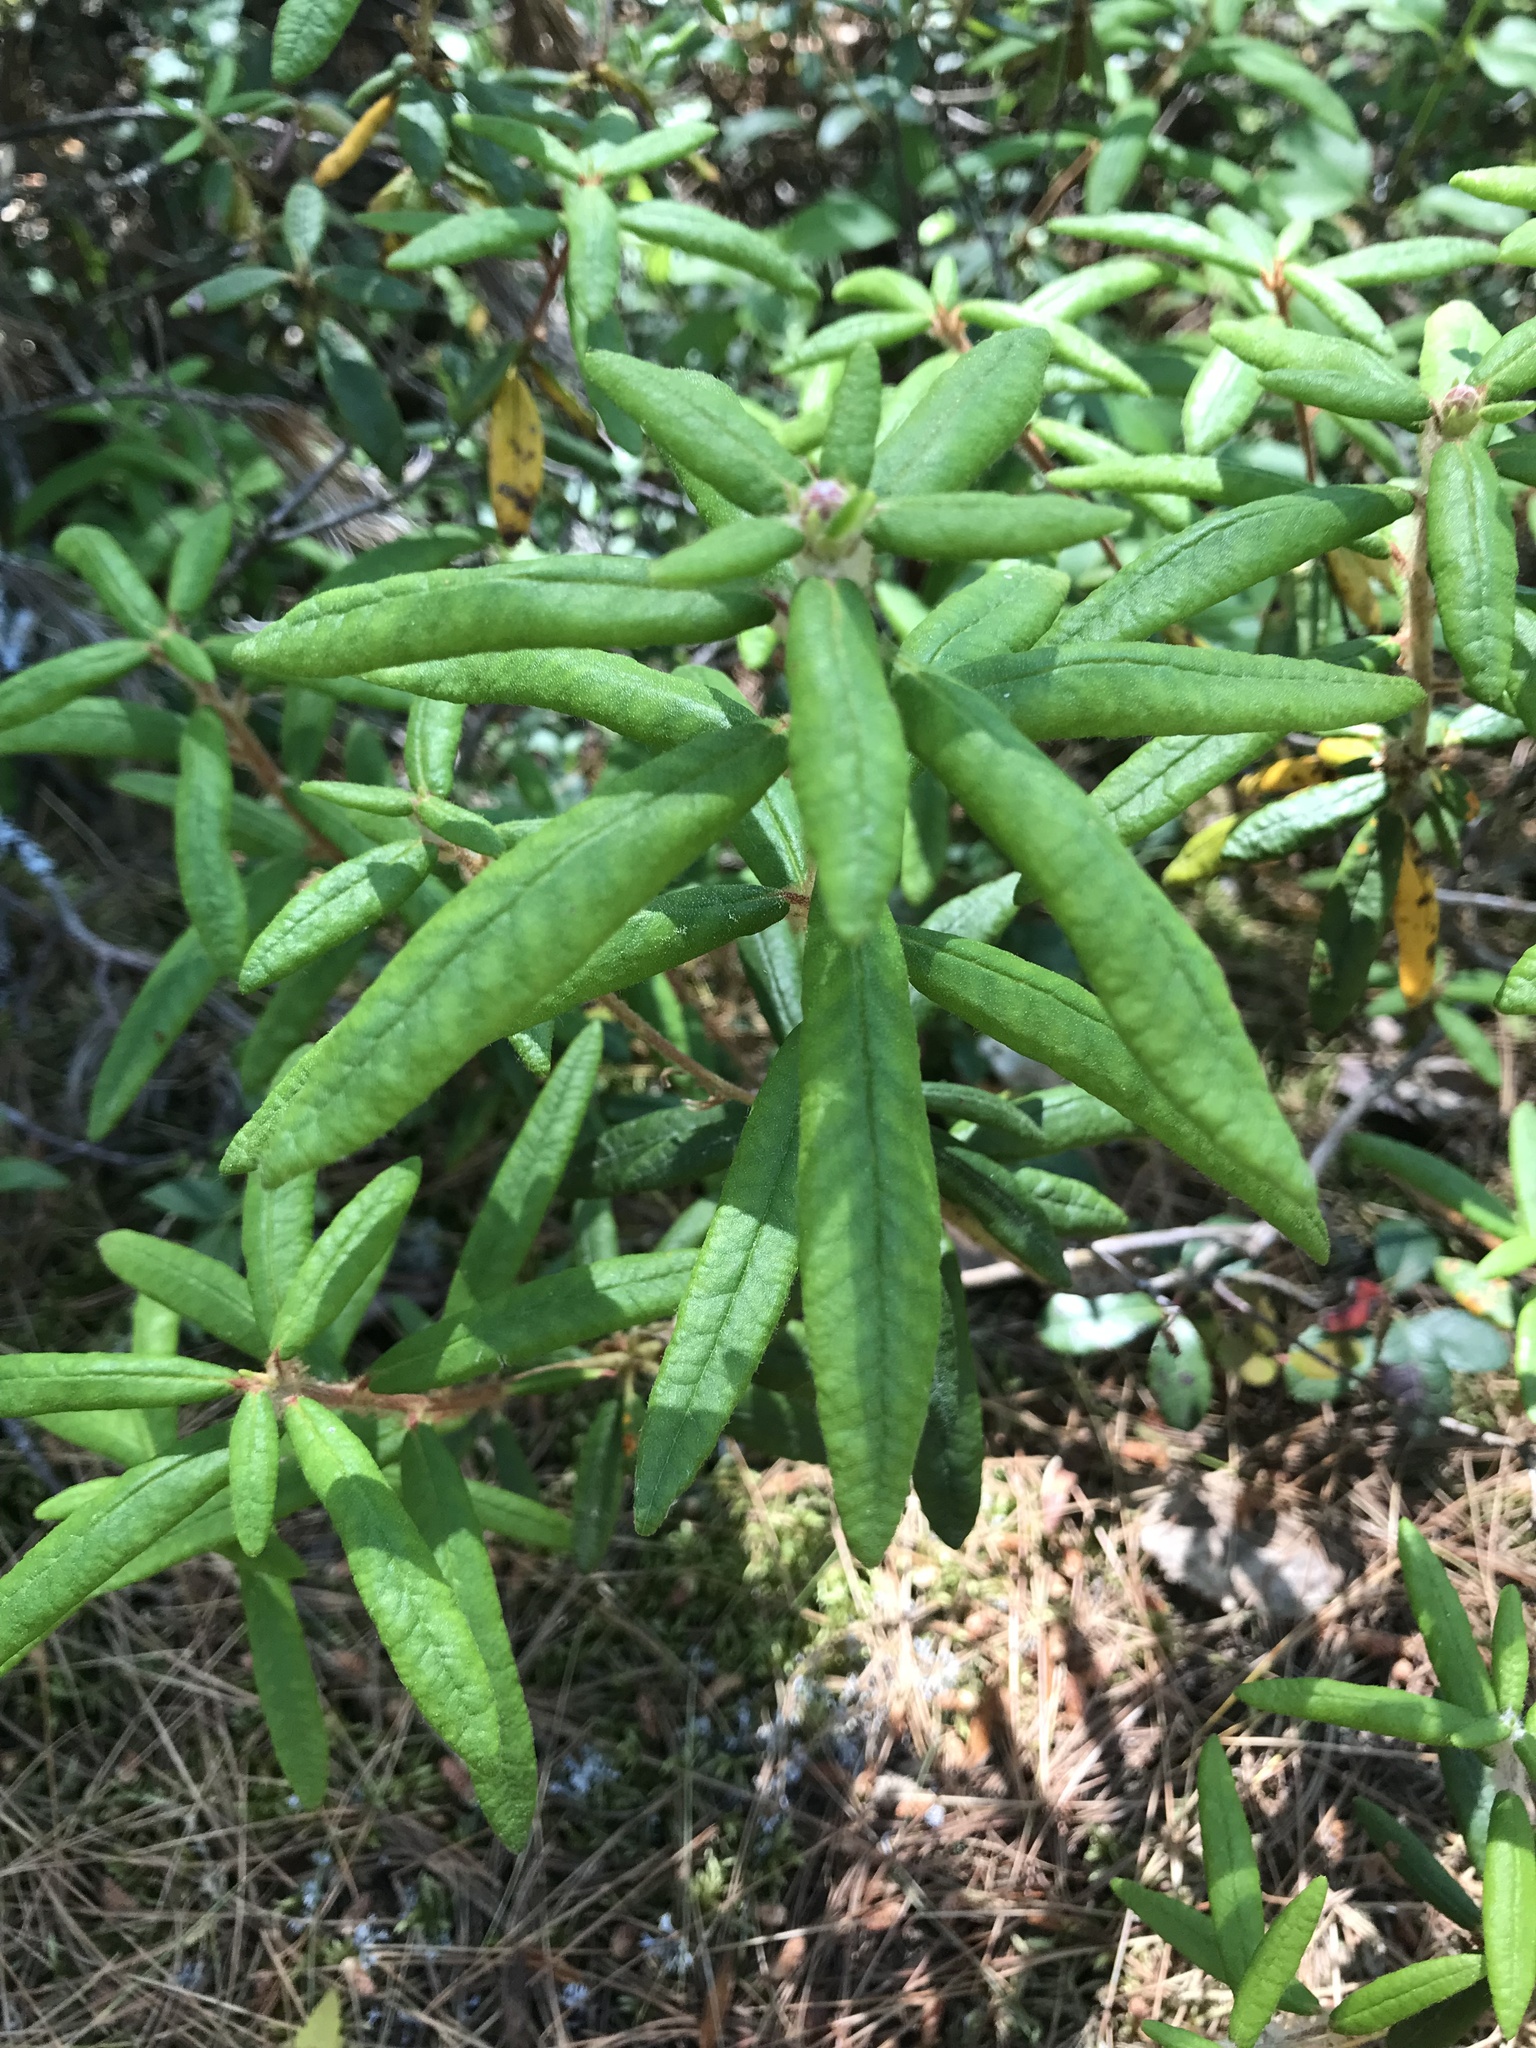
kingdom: Plantae
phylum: Tracheophyta
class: Magnoliopsida
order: Ericales
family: Ericaceae
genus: Rhododendron
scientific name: Rhododendron groenlandicum
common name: Bog labrador tea
